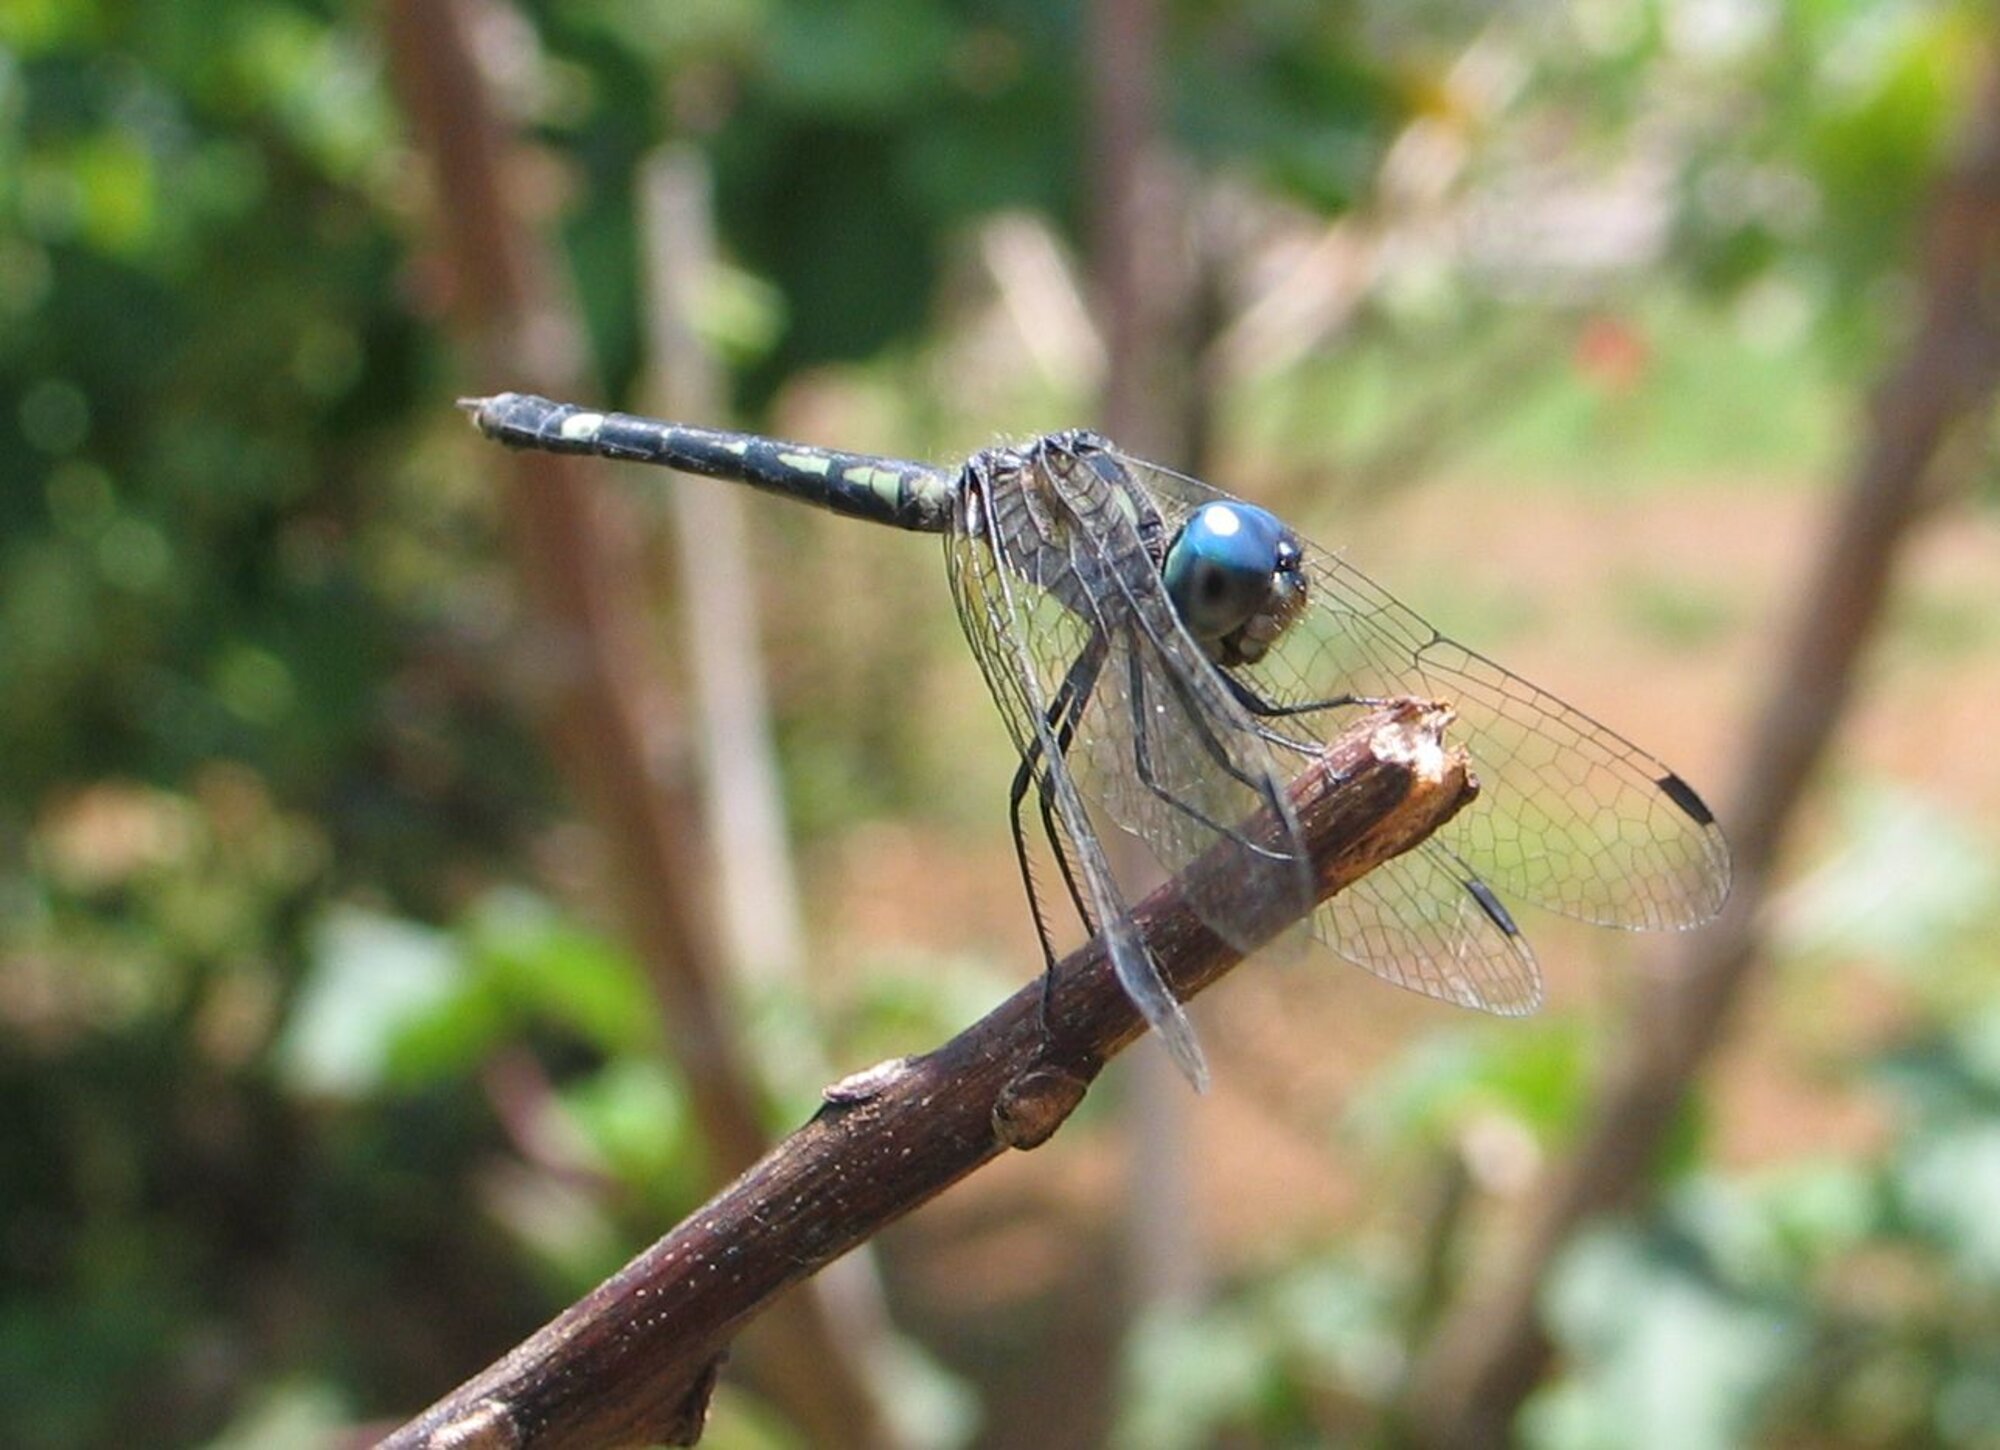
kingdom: Animalia
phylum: Arthropoda
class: Insecta
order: Odonata
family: Libellulidae
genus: Nephepeltia
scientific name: Nephepeltia phryne
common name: Spine-bellied dryad
